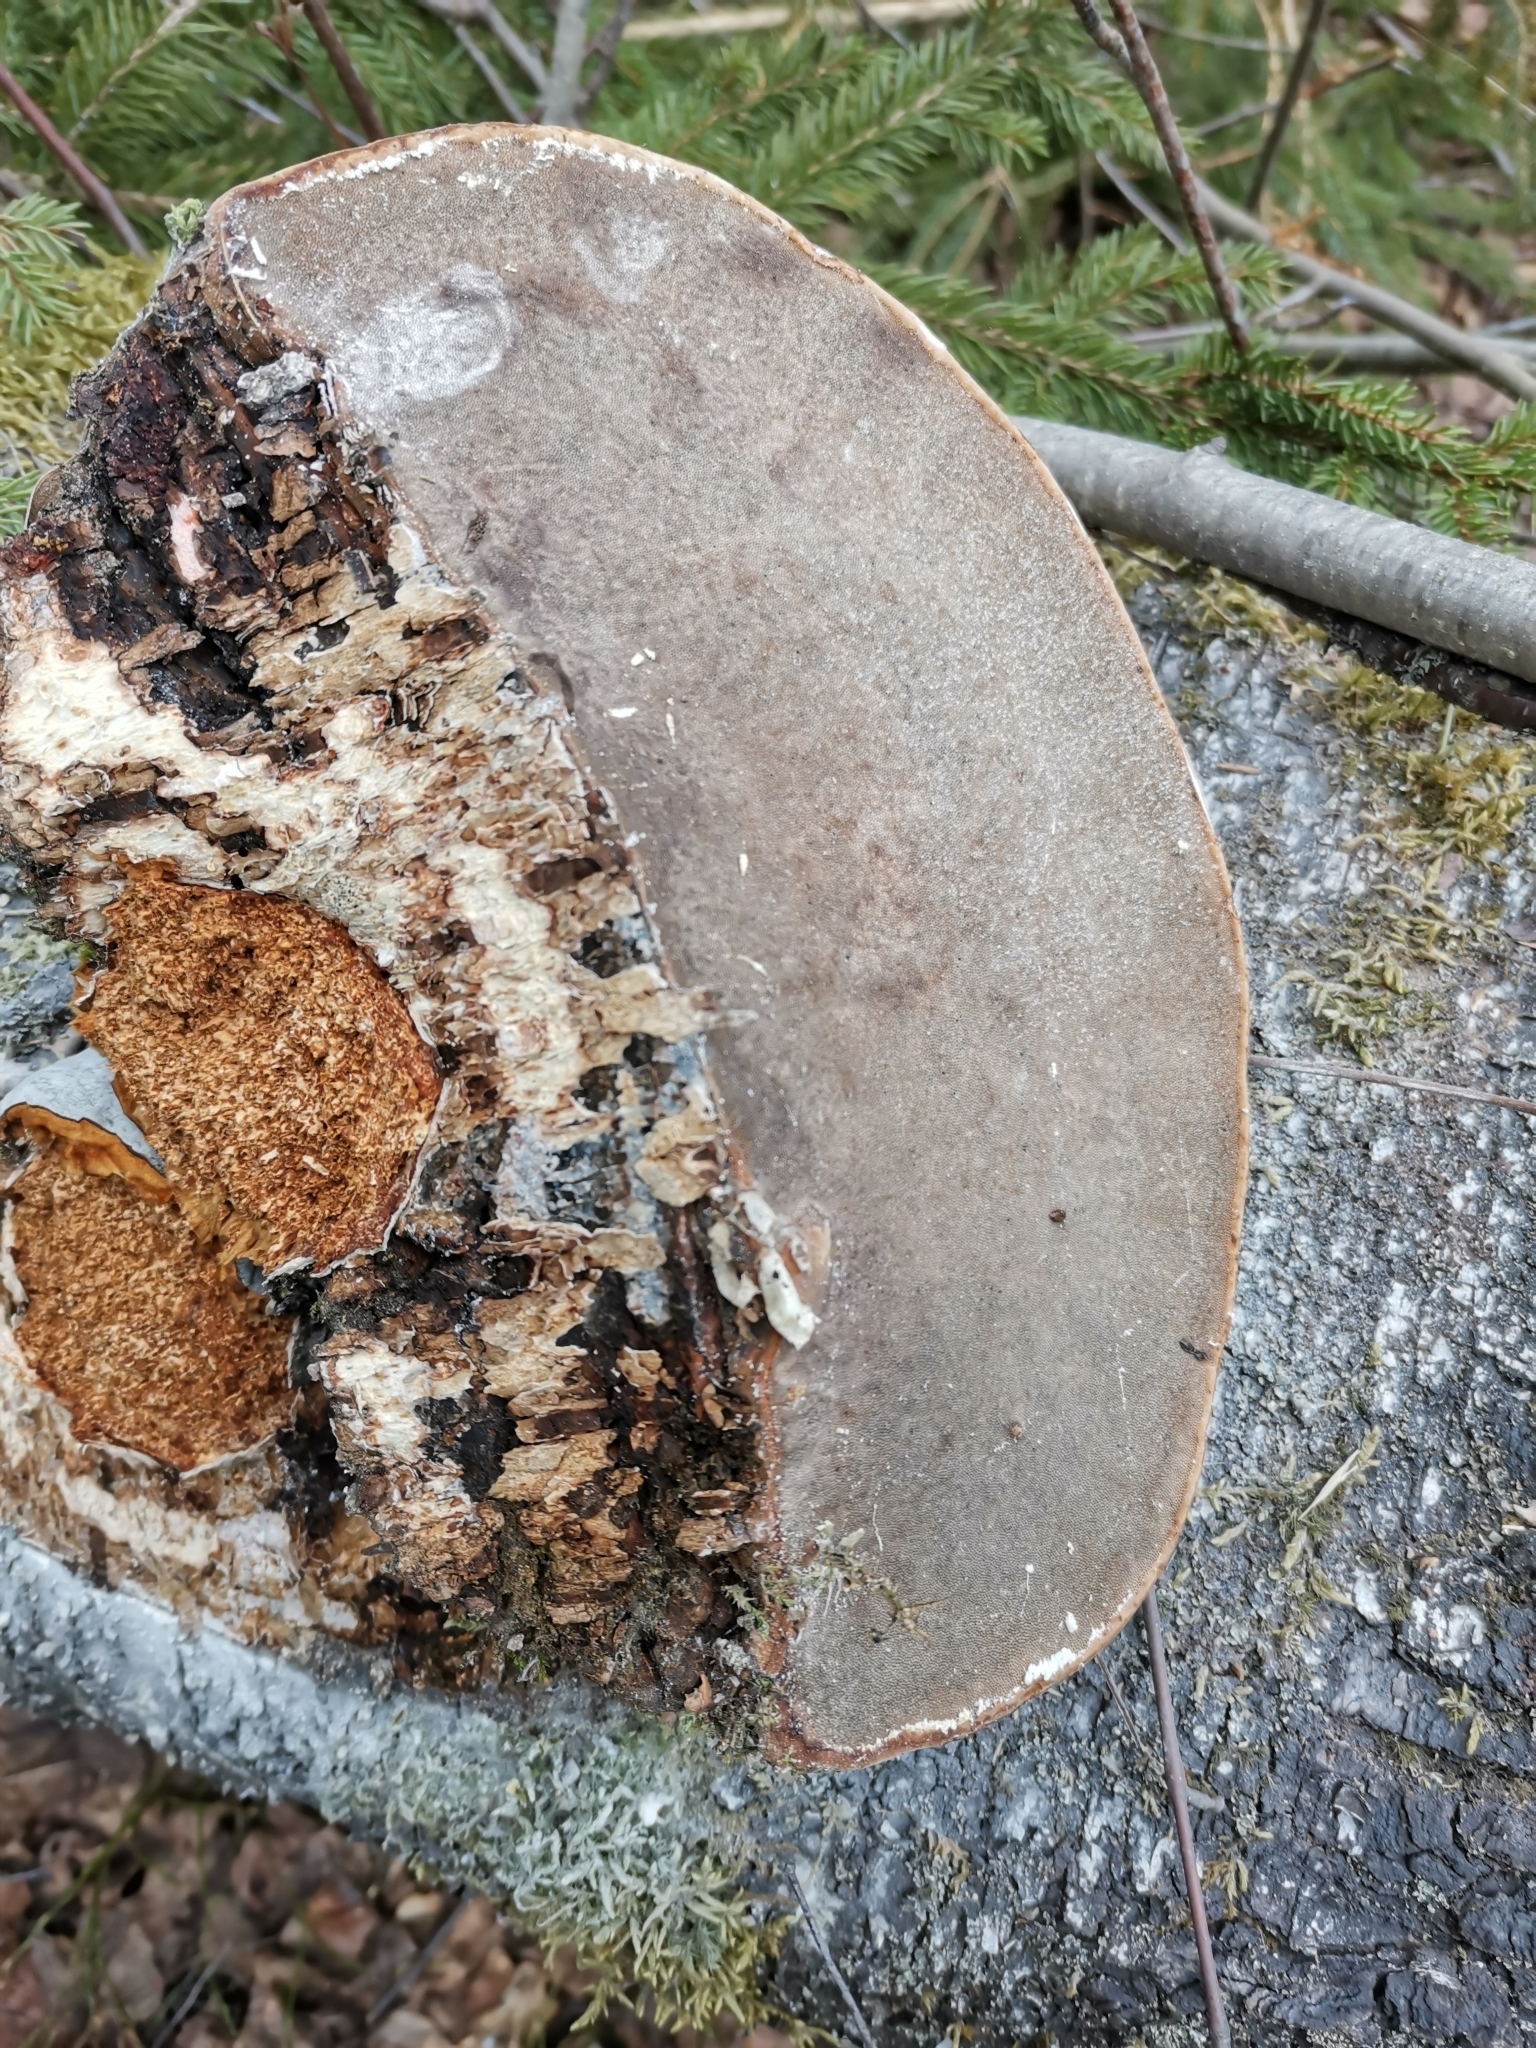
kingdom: Fungi
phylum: Basidiomycota
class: Agaricomycetes
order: Polyporales
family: Polyporaceae
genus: Fomes
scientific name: Fomes fomentarius
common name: Hoof fungus
